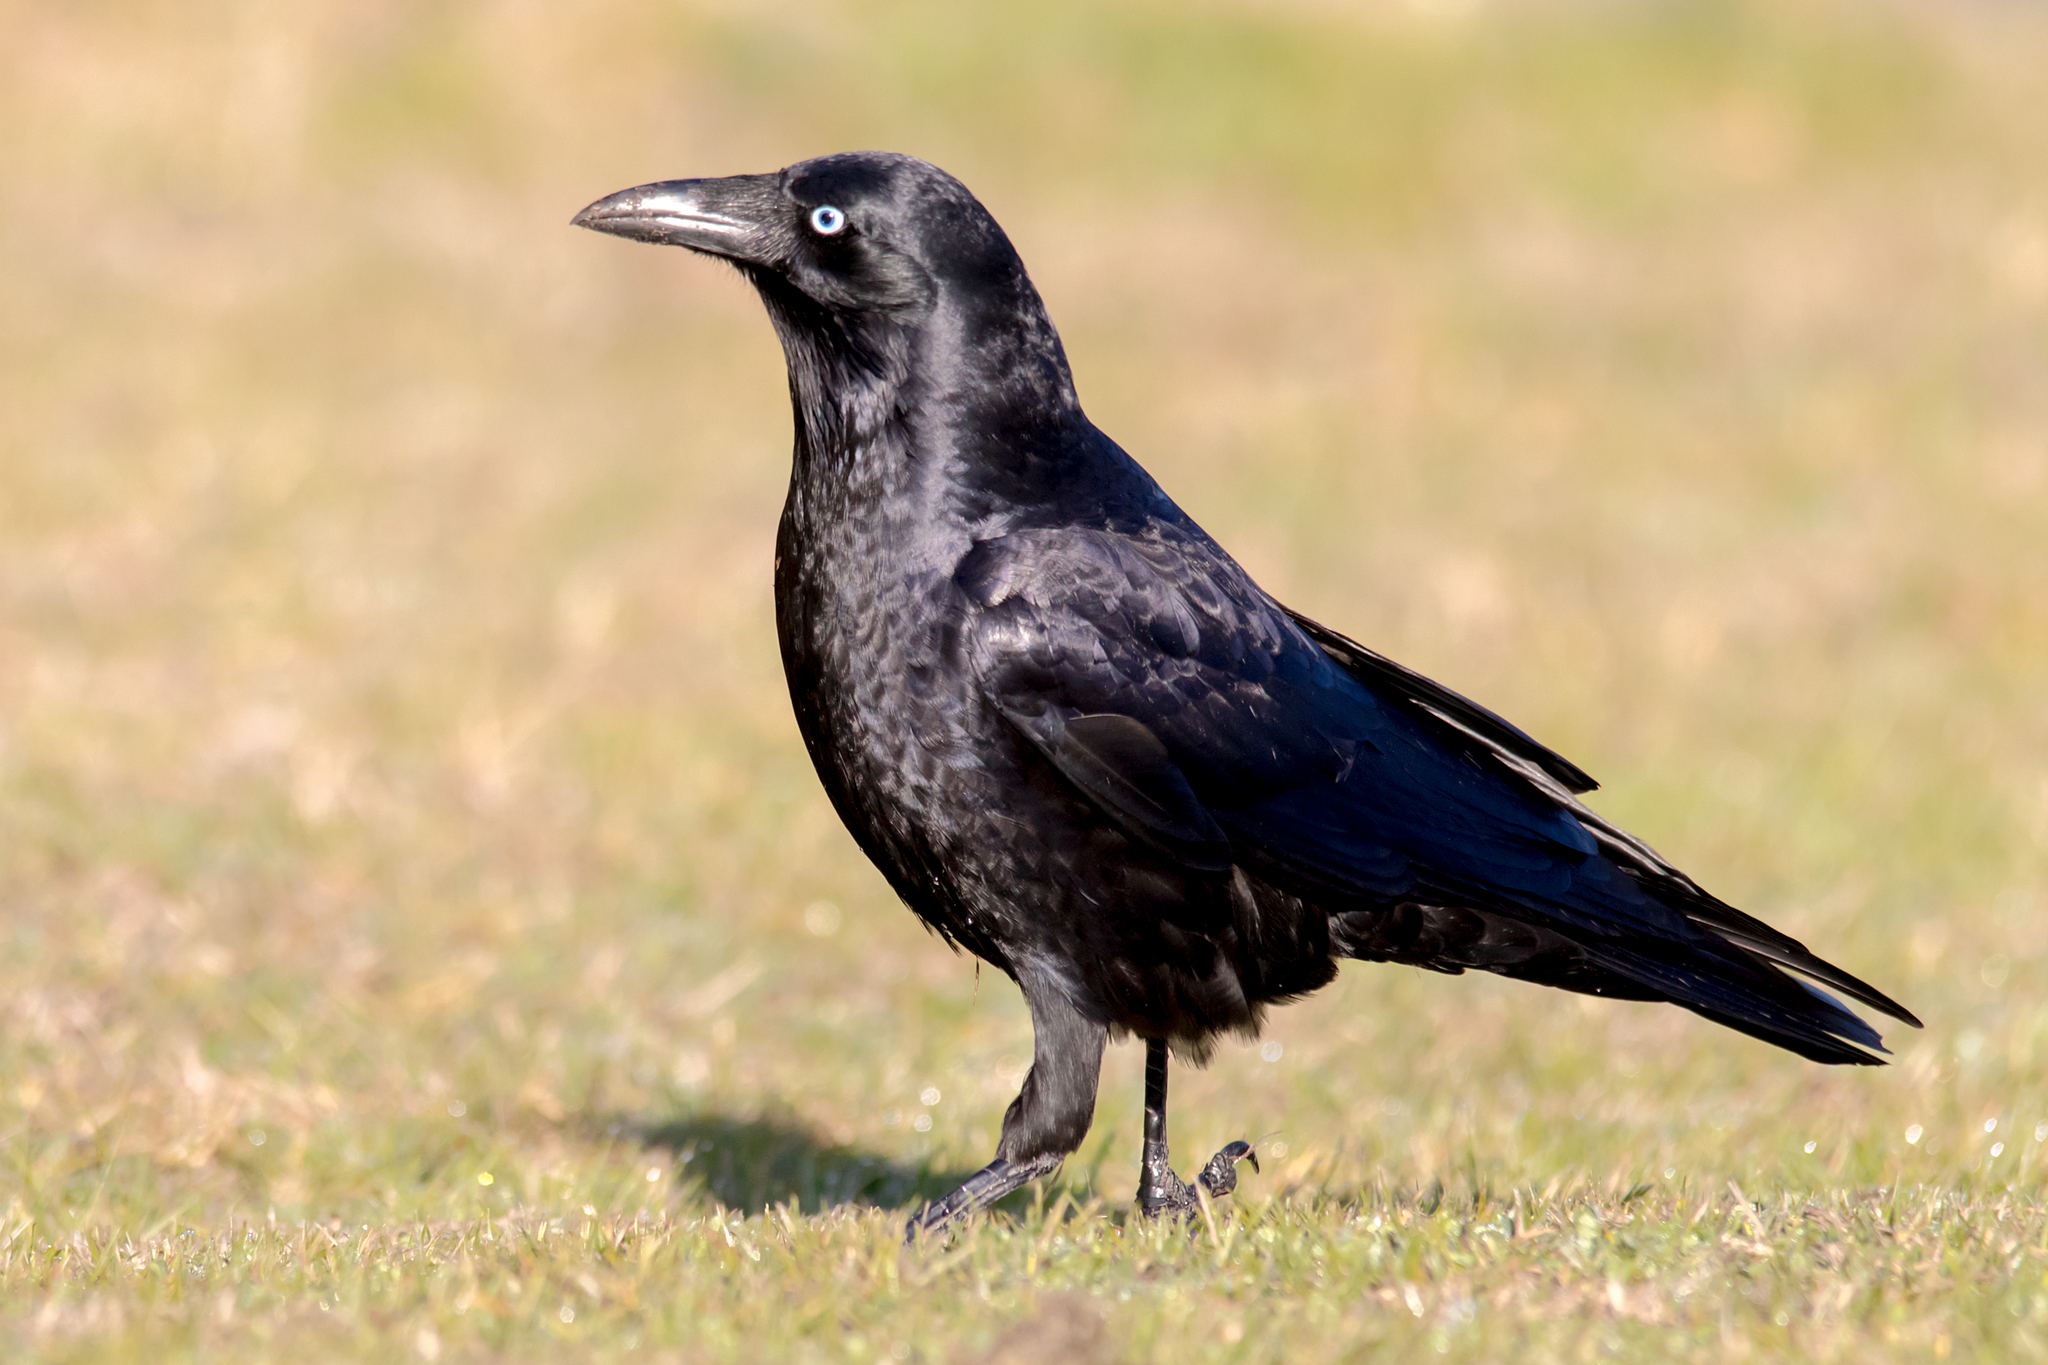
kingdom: Animalia
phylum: Chordata
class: Aves
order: Passeriformes
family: Corvidae
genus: Corvus
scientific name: Corvus mellori
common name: Little raven
